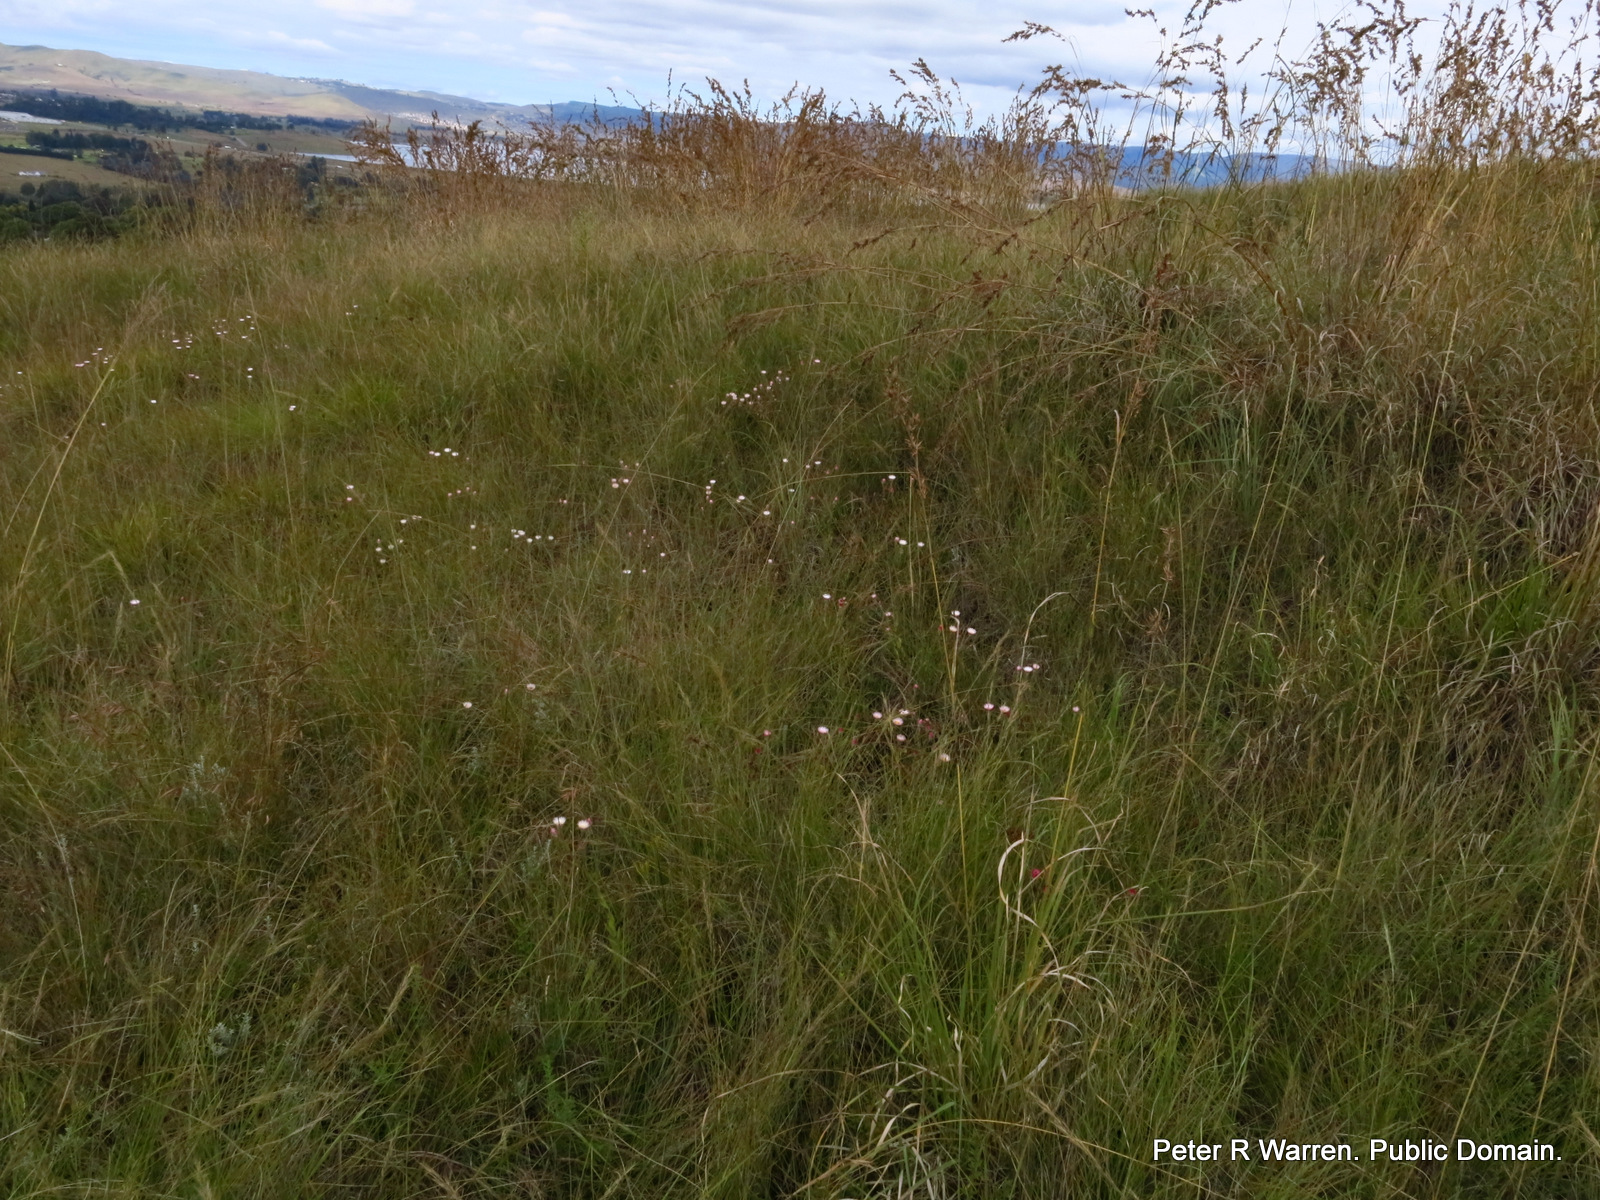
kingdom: Plantae
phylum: Tracheophyta
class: Magnoliopsida
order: Asterales
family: Asteraceae
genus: Helichrysum
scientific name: Helichrysum adenocarpum
